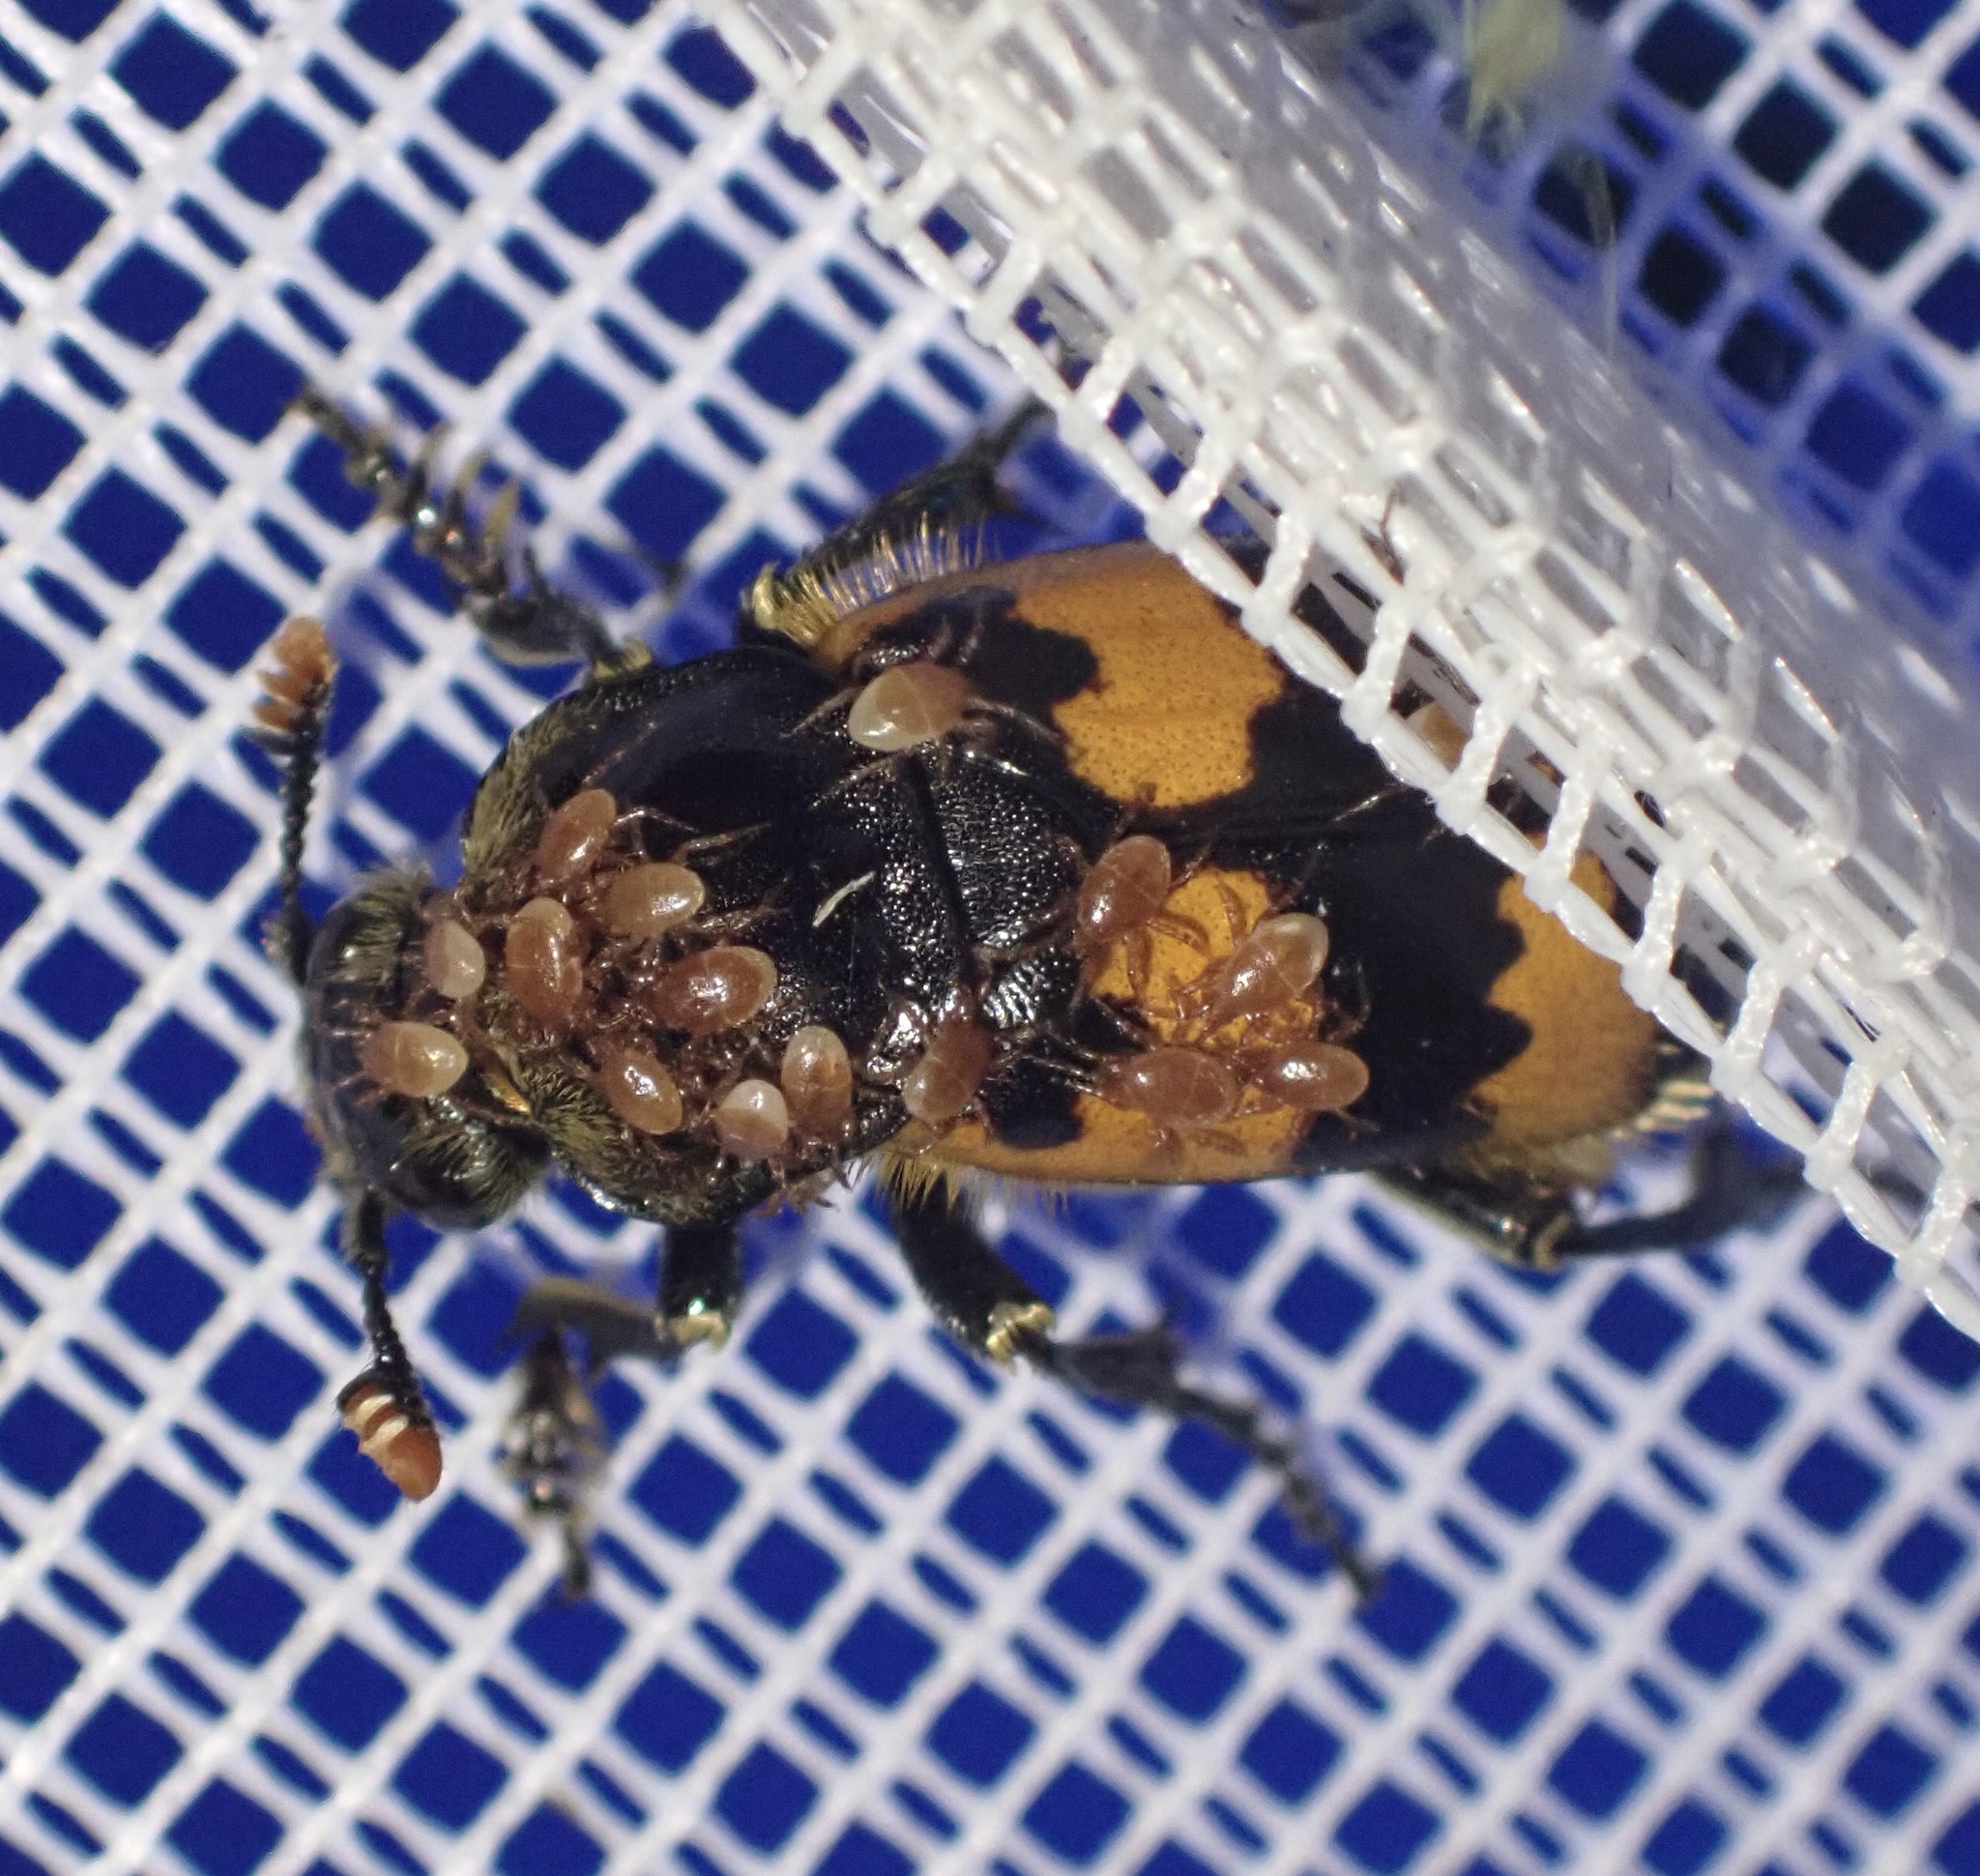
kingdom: Animalia
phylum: Arthropoda
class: Insecta
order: Coleoptera
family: Staphylinidae
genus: Nicrophorus
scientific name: Nicrophorus vespillo
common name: Common burying beetle
